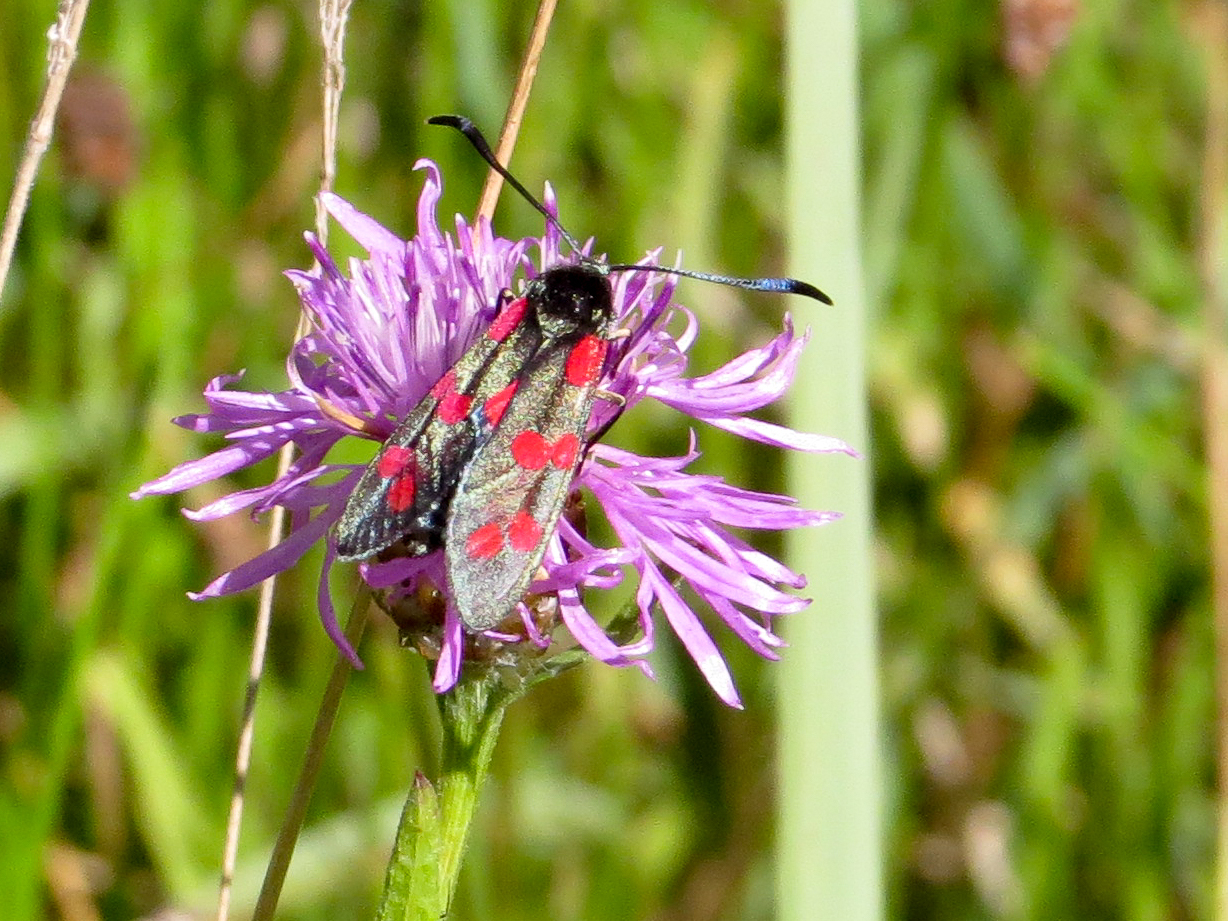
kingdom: Animalia
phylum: Arthropoda
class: Insecta
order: Lepidoptera
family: Zygaenidae
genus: Zygaena
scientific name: Zygaena filipendulae
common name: Six-spot burnet
